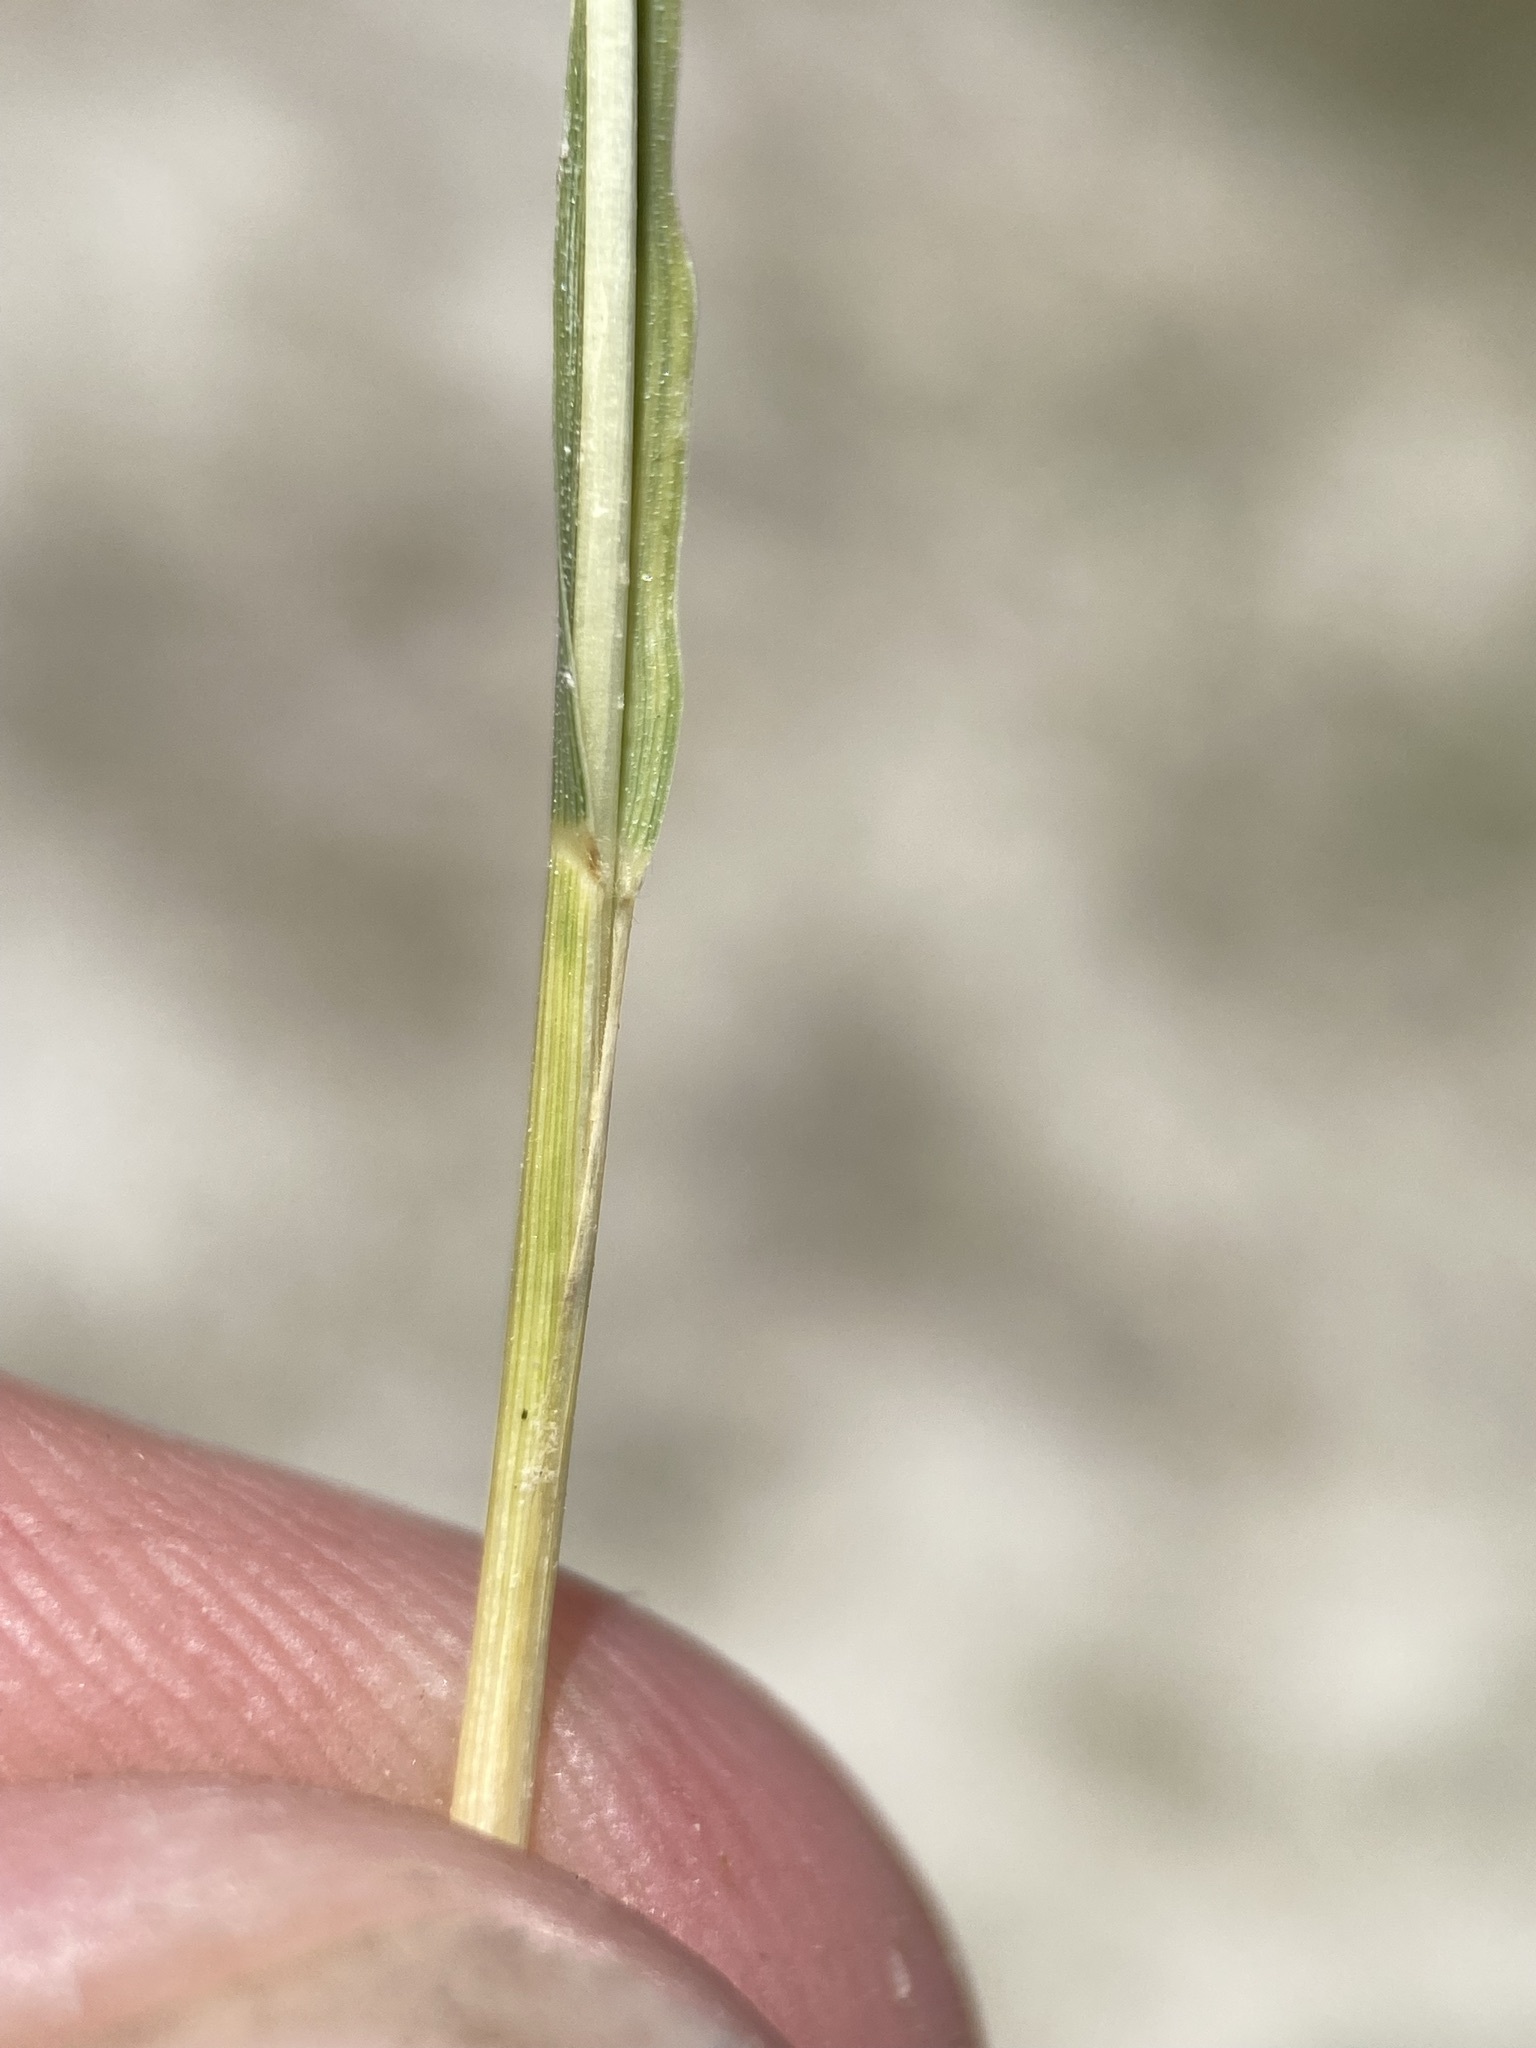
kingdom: Plantae
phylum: Tracheophyta
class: Liliopsida
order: Poales
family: Poaceae
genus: Distichlis
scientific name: Distichlis spicata
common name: Saltgrass
